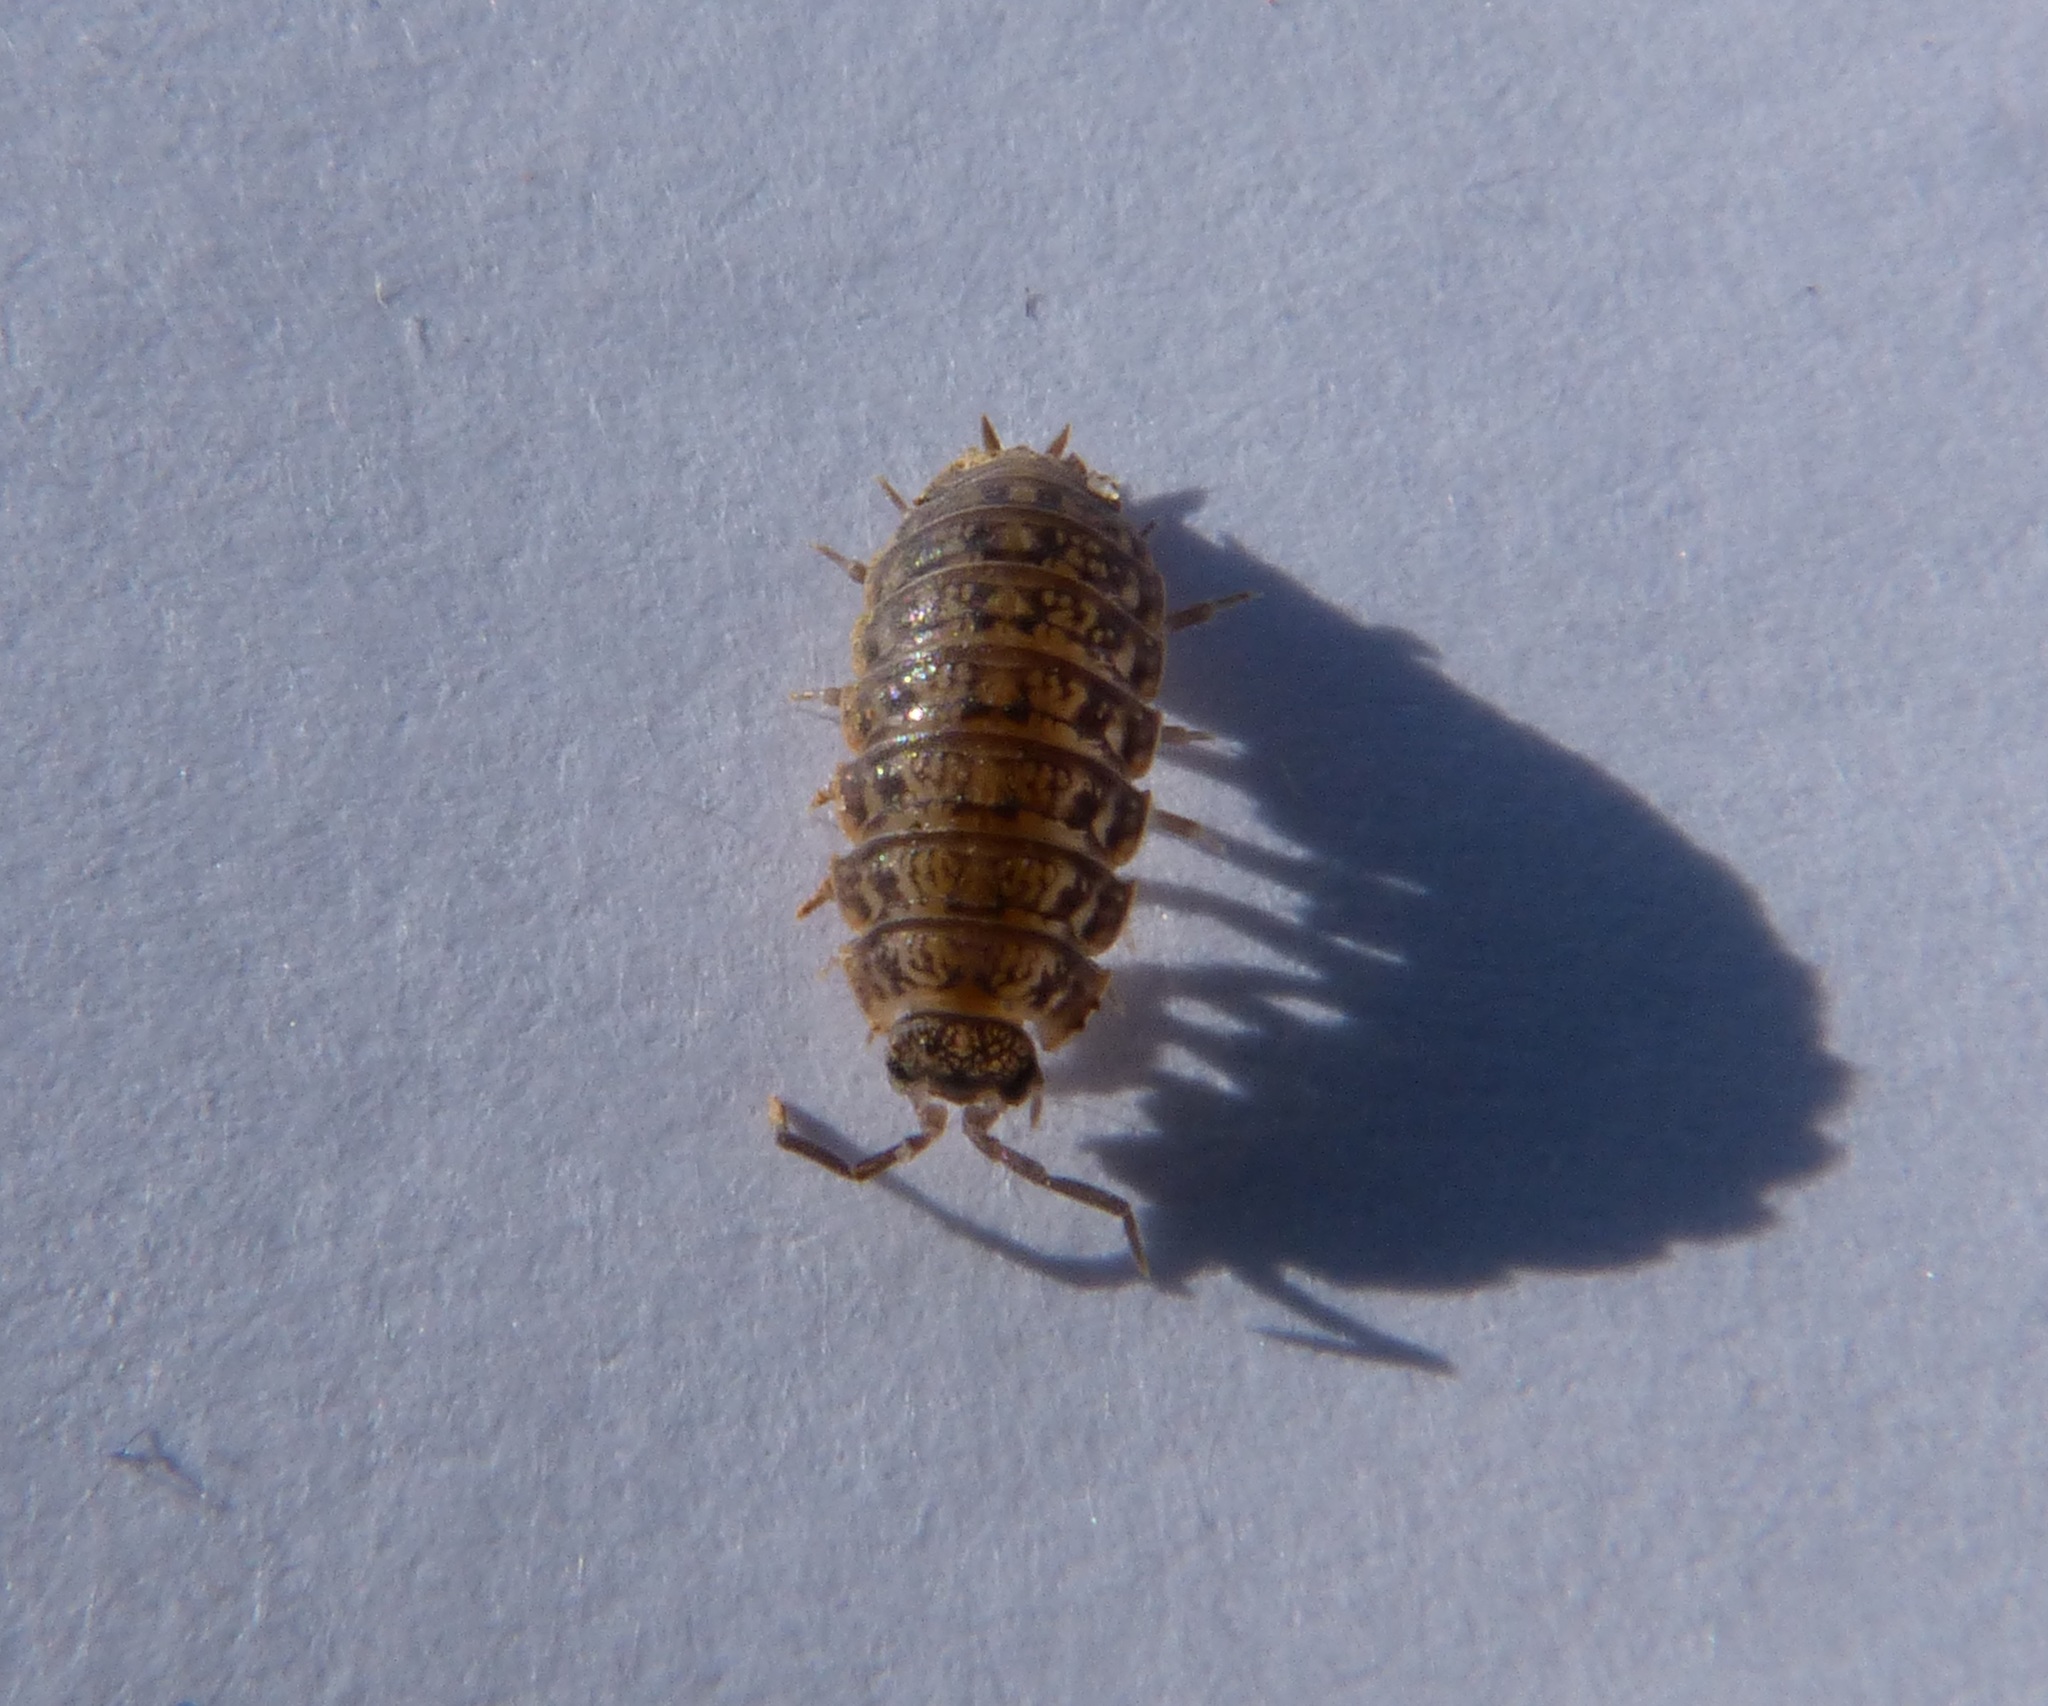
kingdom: Animalia
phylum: Arthropoda
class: Malacostraca
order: Isopoda
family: Trachelipodidae
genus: Trachelipus
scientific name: Trachelipus razzautii
